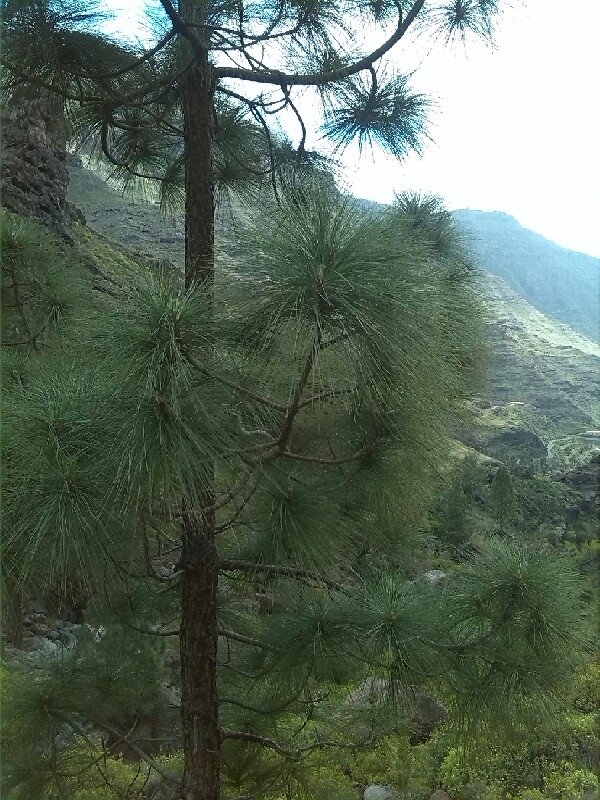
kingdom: Plantae
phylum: Tracheophyta
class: Pinopsida
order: Pinales
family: Pinaceae
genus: Pinus
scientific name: Pinus canariensis
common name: Canary islands pine
